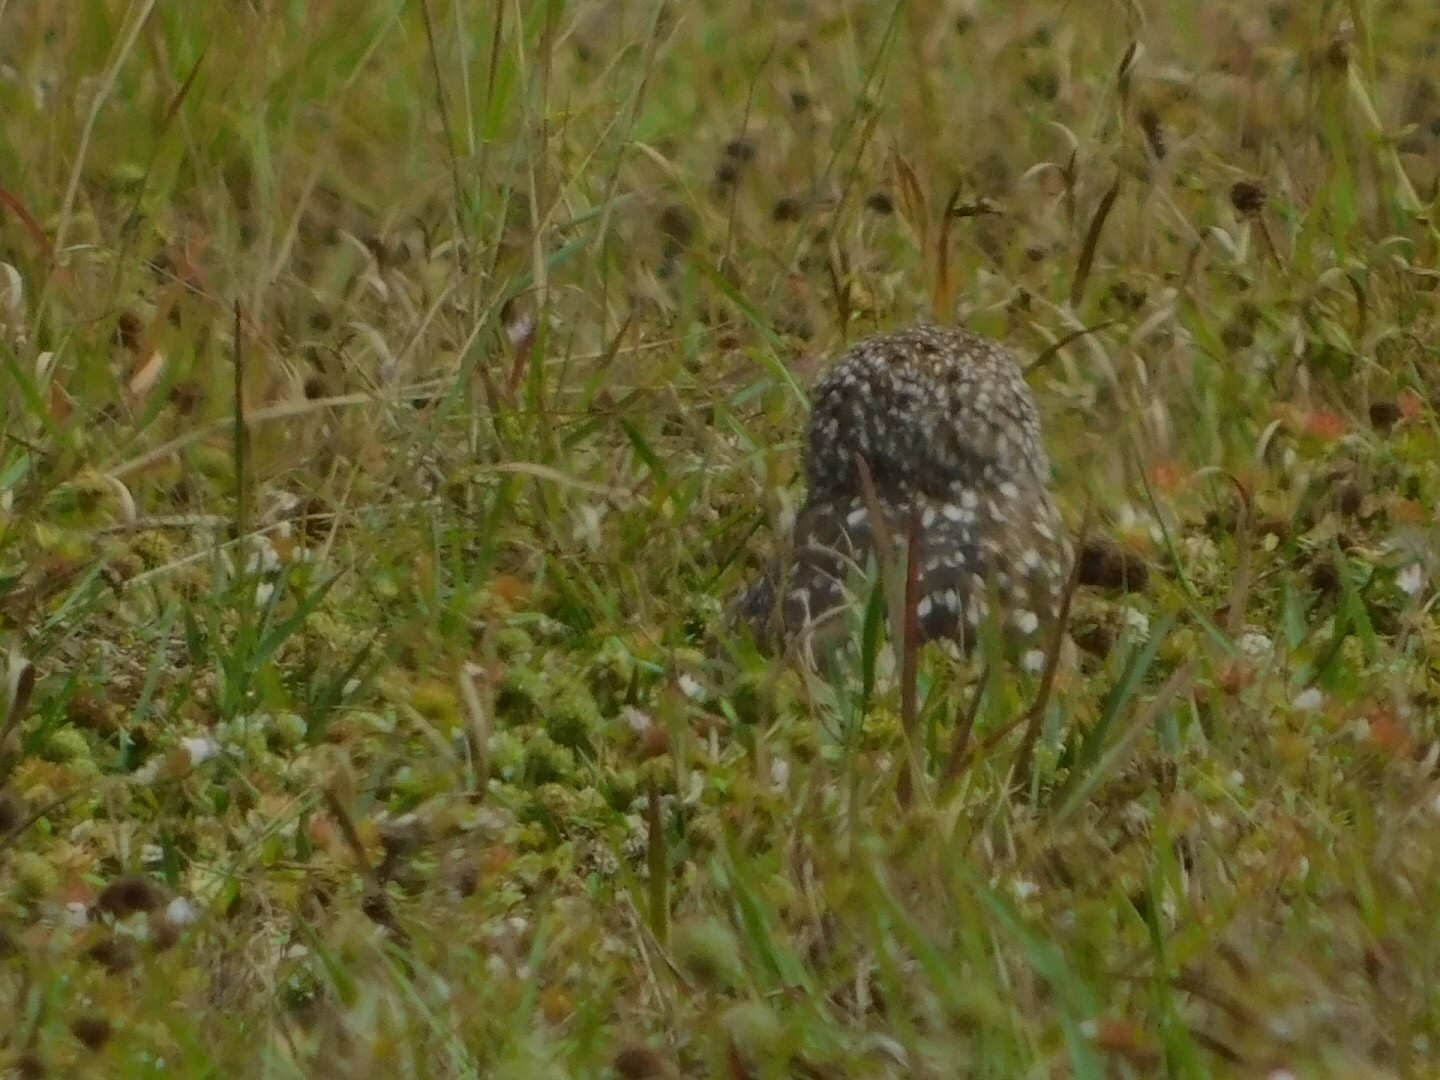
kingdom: Animalia
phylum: Chordata
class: Aves
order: Strigiformes
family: Strigidae
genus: Athene
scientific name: Athene cunicularia
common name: Burrowing owl
